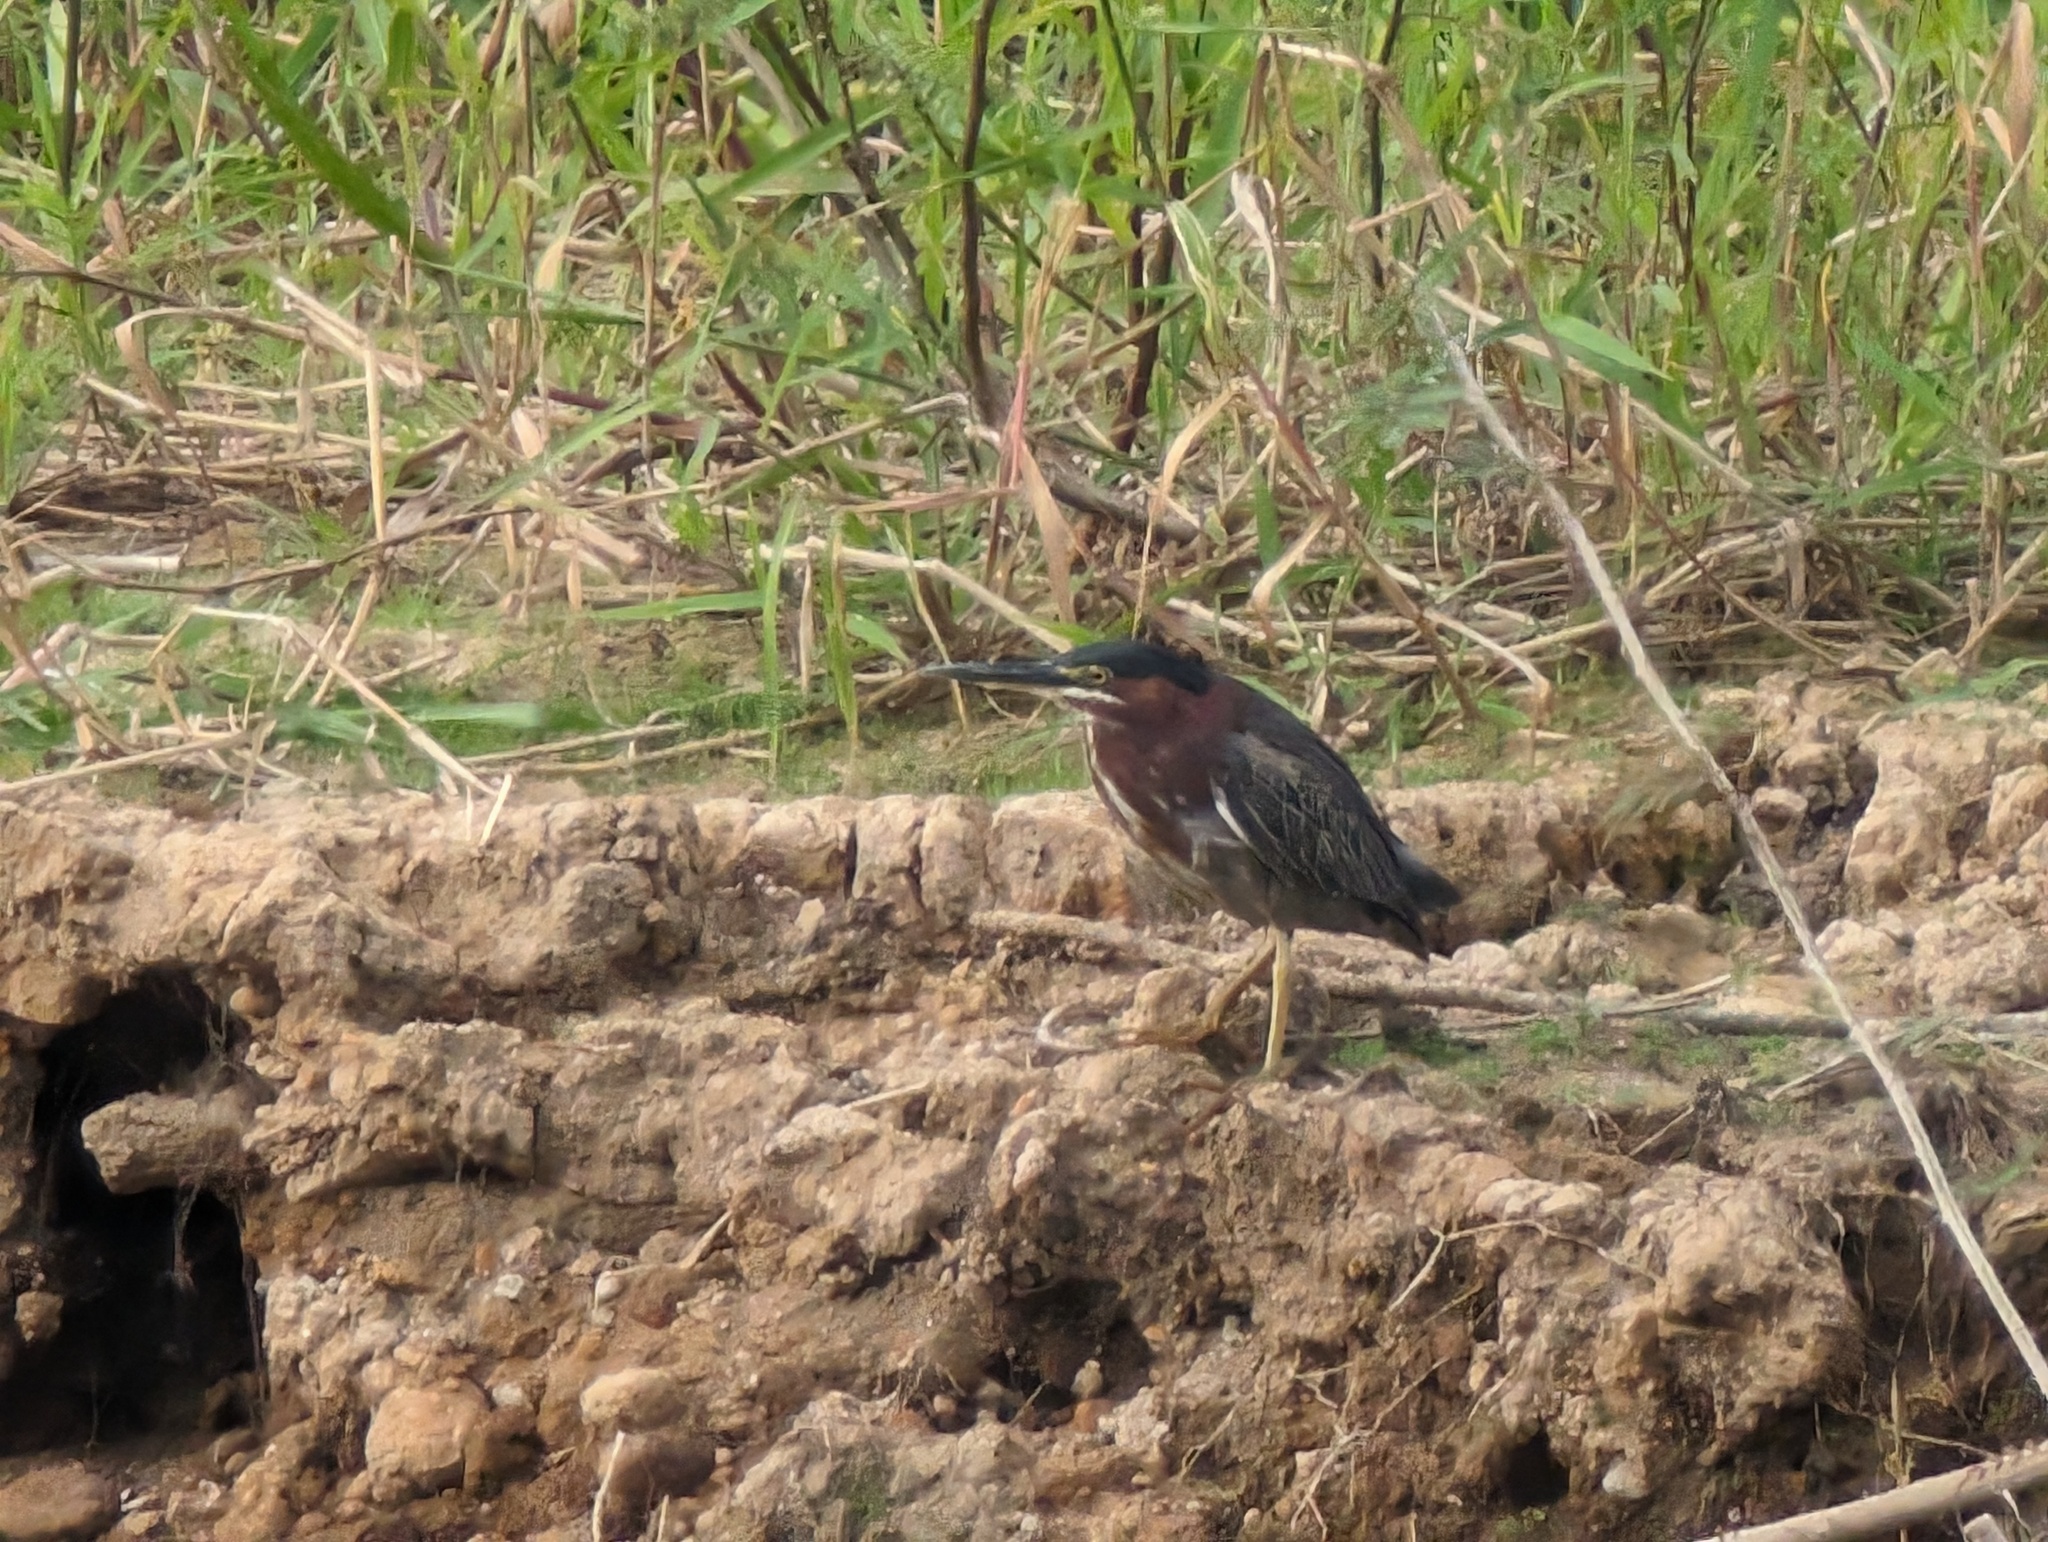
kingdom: Animalia
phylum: Chordata
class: Aves
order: Pelecaniformes
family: Ardeidae
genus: Butorides
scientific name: Butorides virescens
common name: Green heron
